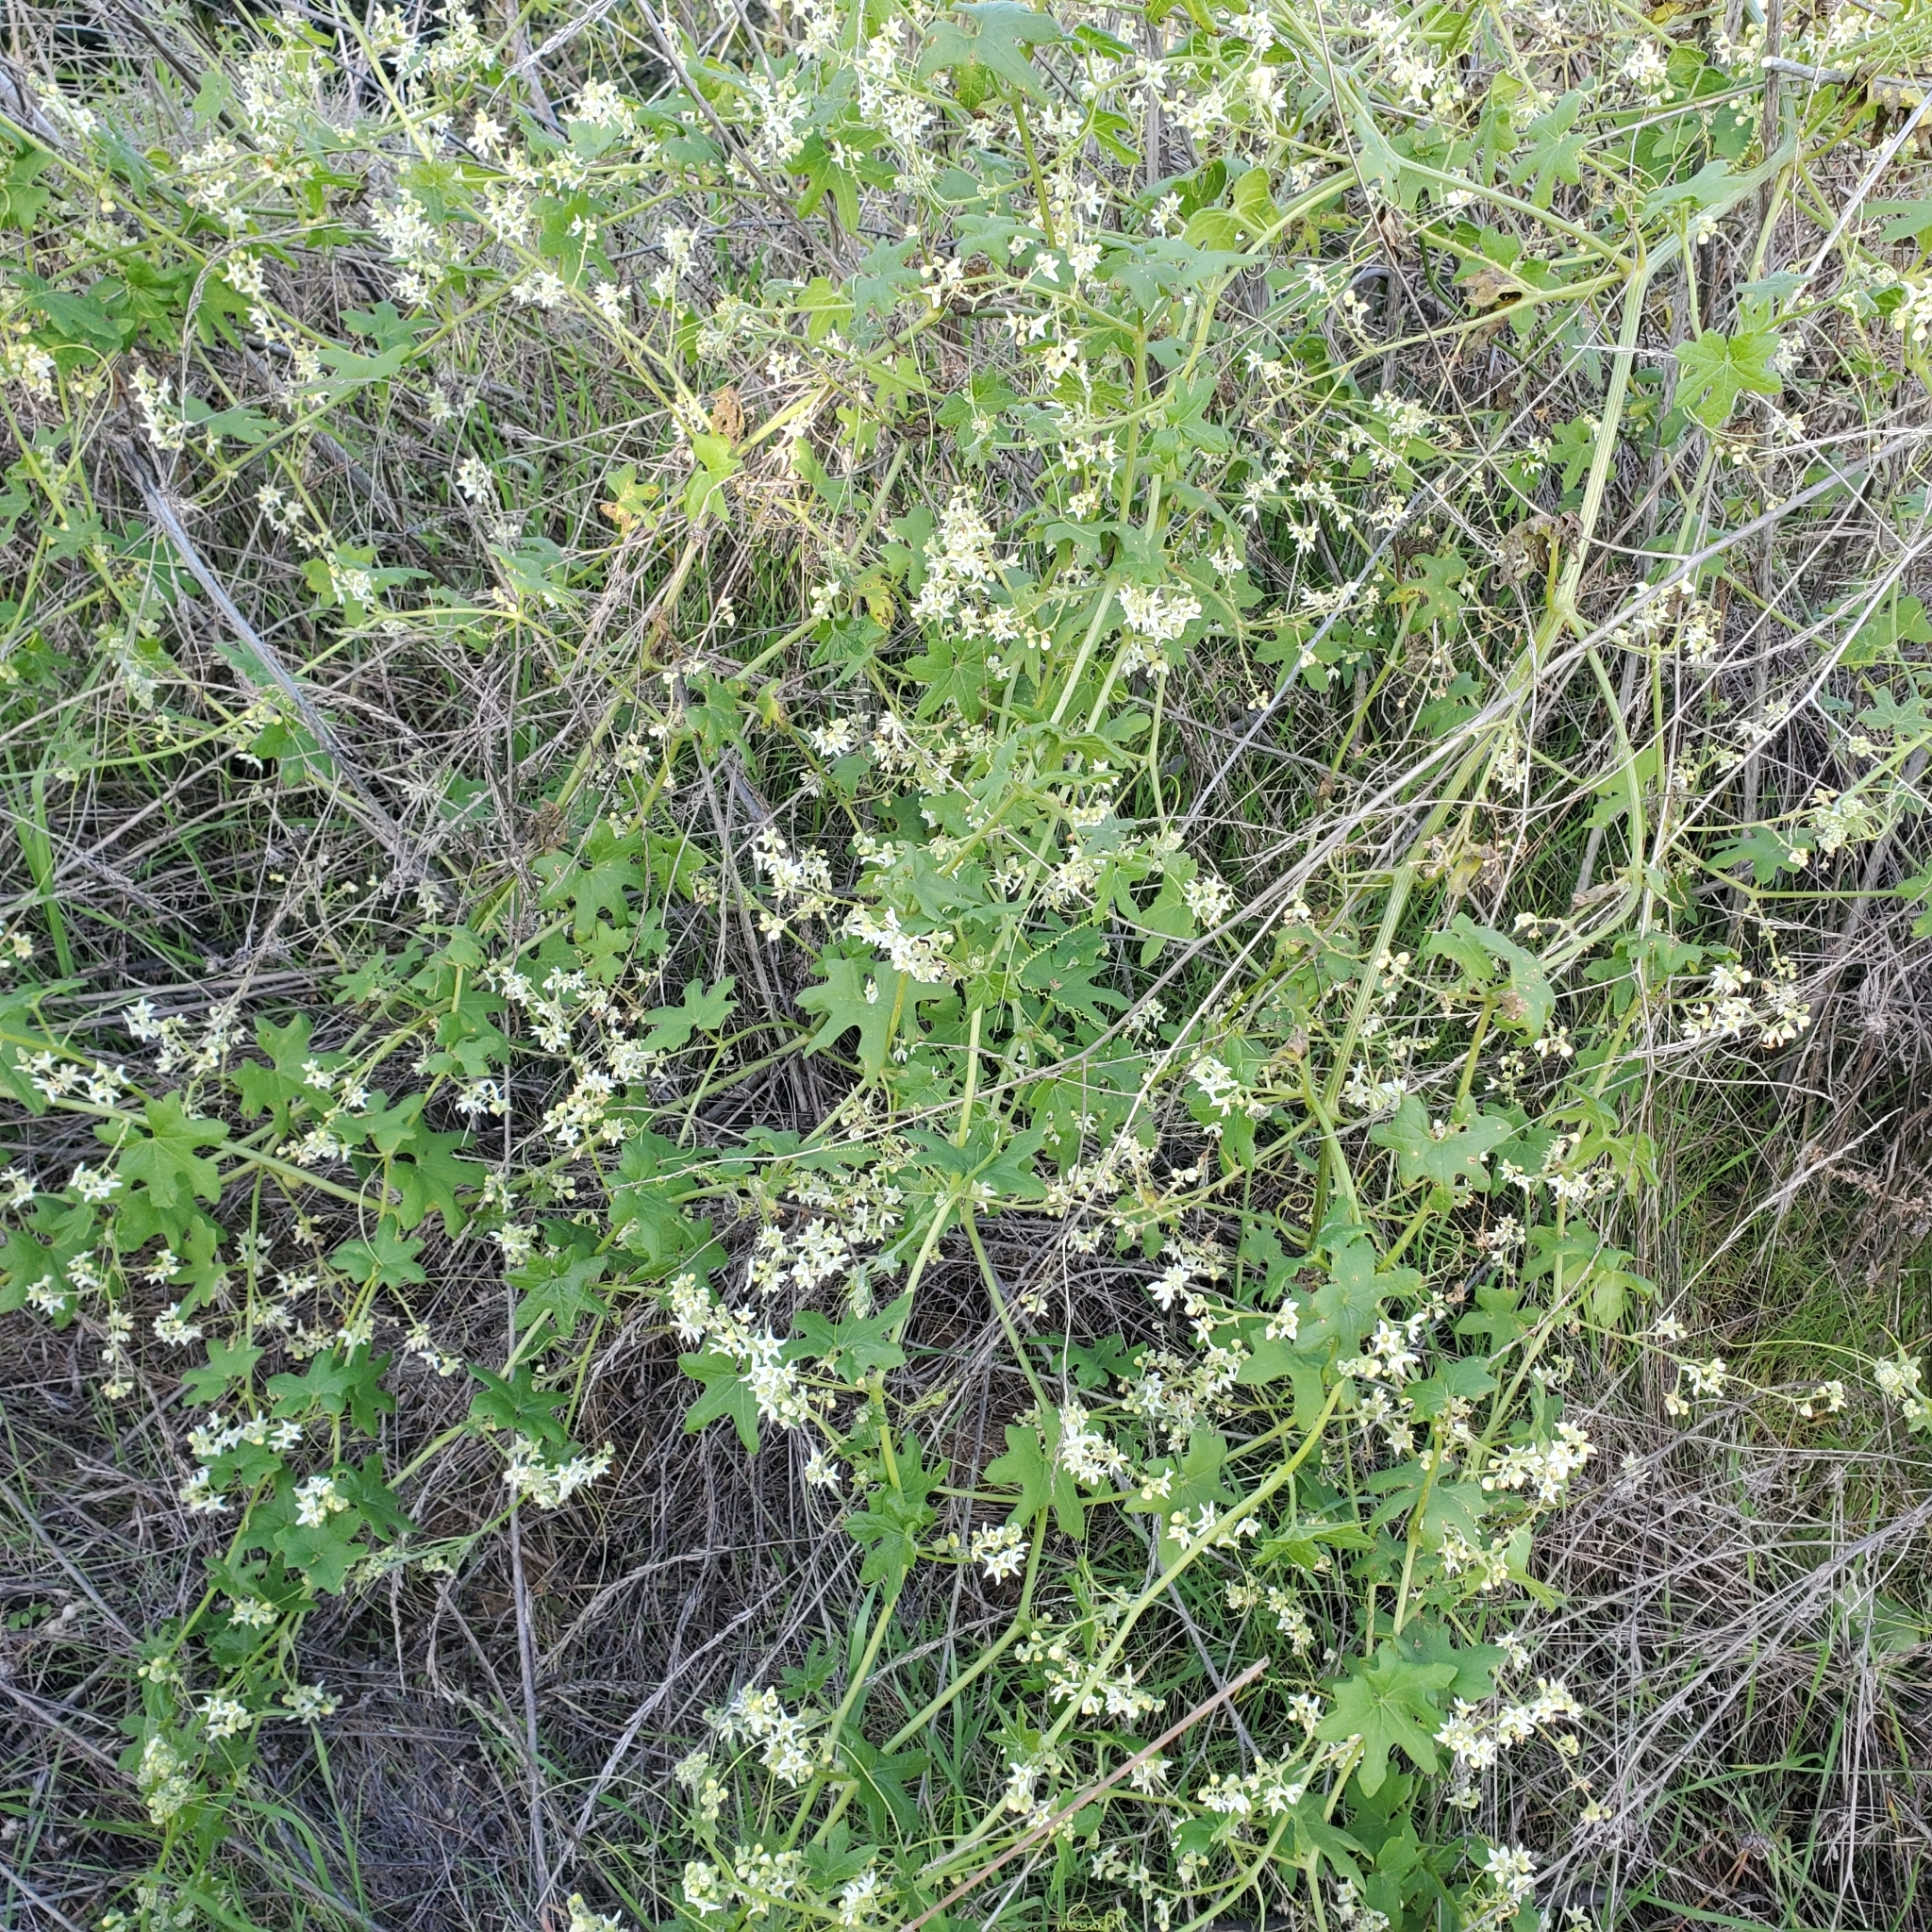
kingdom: Plantae
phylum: Tracheophyta
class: Magnoliopsida
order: Cucurbitales
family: Cucurbitaceae
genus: Marah
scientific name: Marah macrocarpa
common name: Cucamonga manroot
